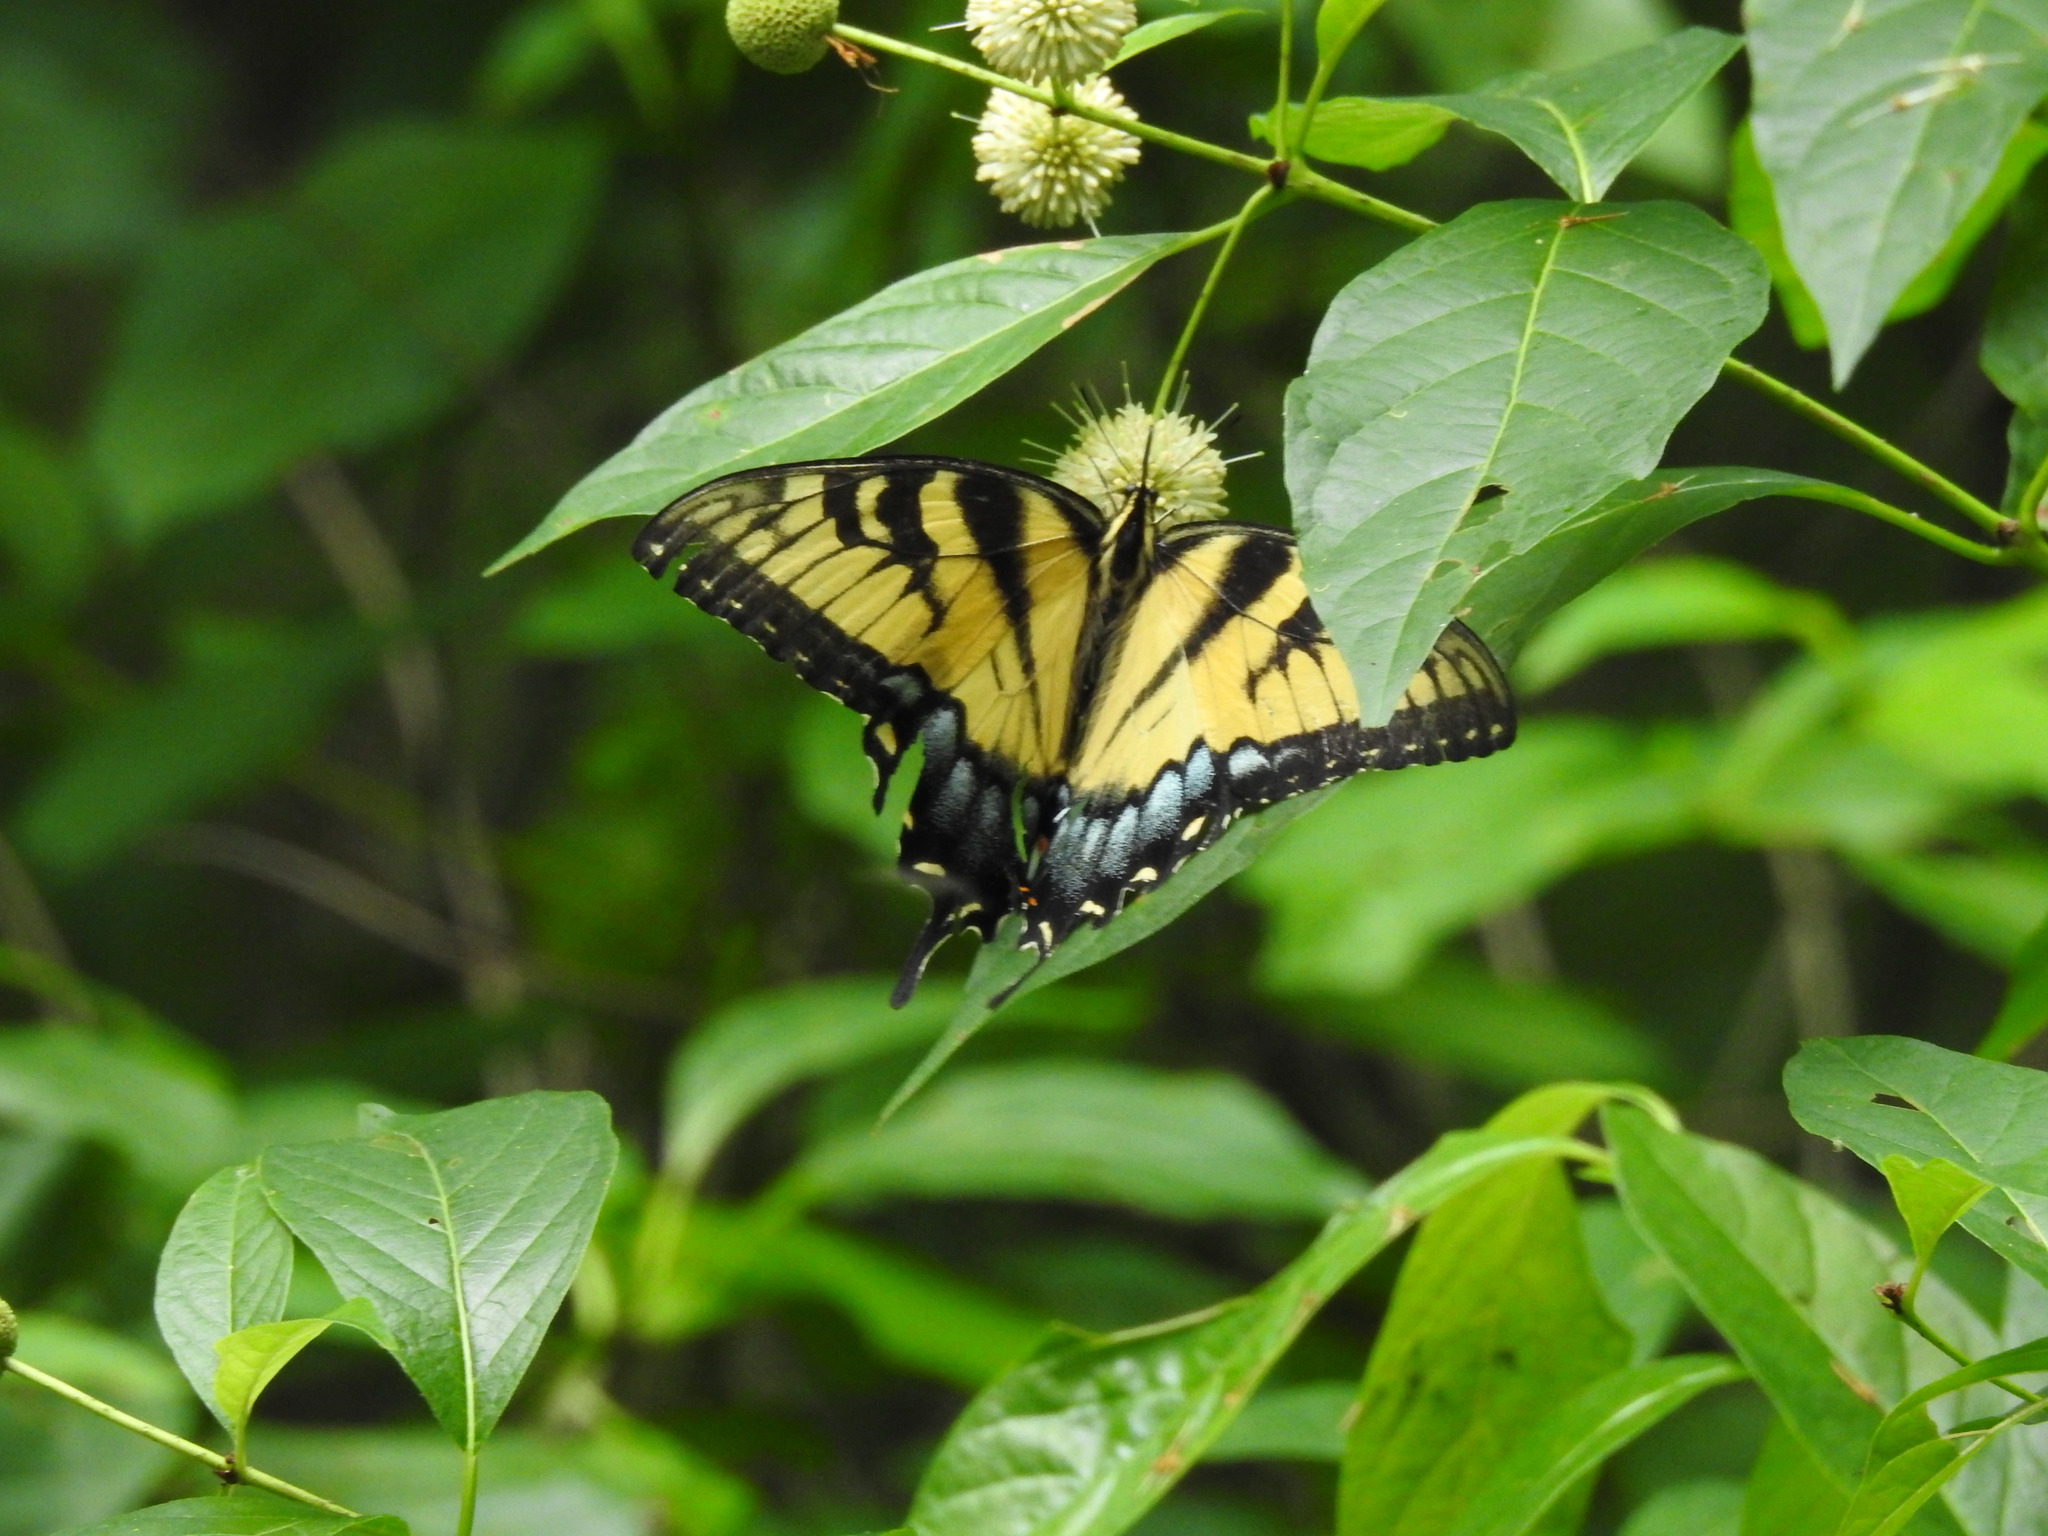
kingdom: Animalia
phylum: Arthropoda
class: Insecta
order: Lepidoptera
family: Papilionidae
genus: Papilio
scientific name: Papilio glaucus
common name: Tiger swallowtail
